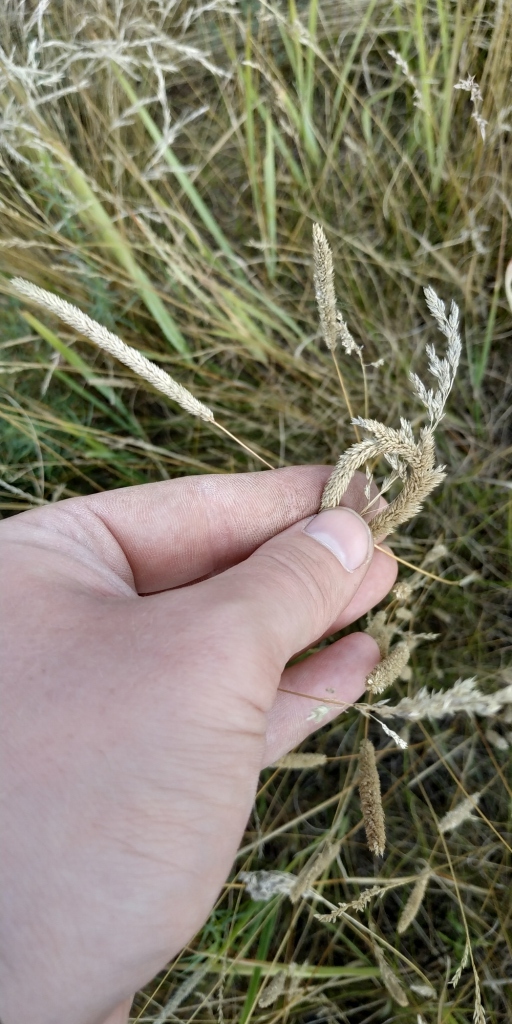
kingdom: Plantae
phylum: Tracheophyta
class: Liliopsida
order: Poales
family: Poaceae
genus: Phleum
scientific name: Phleum phleoides
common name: Purple-stem cat's-tail
